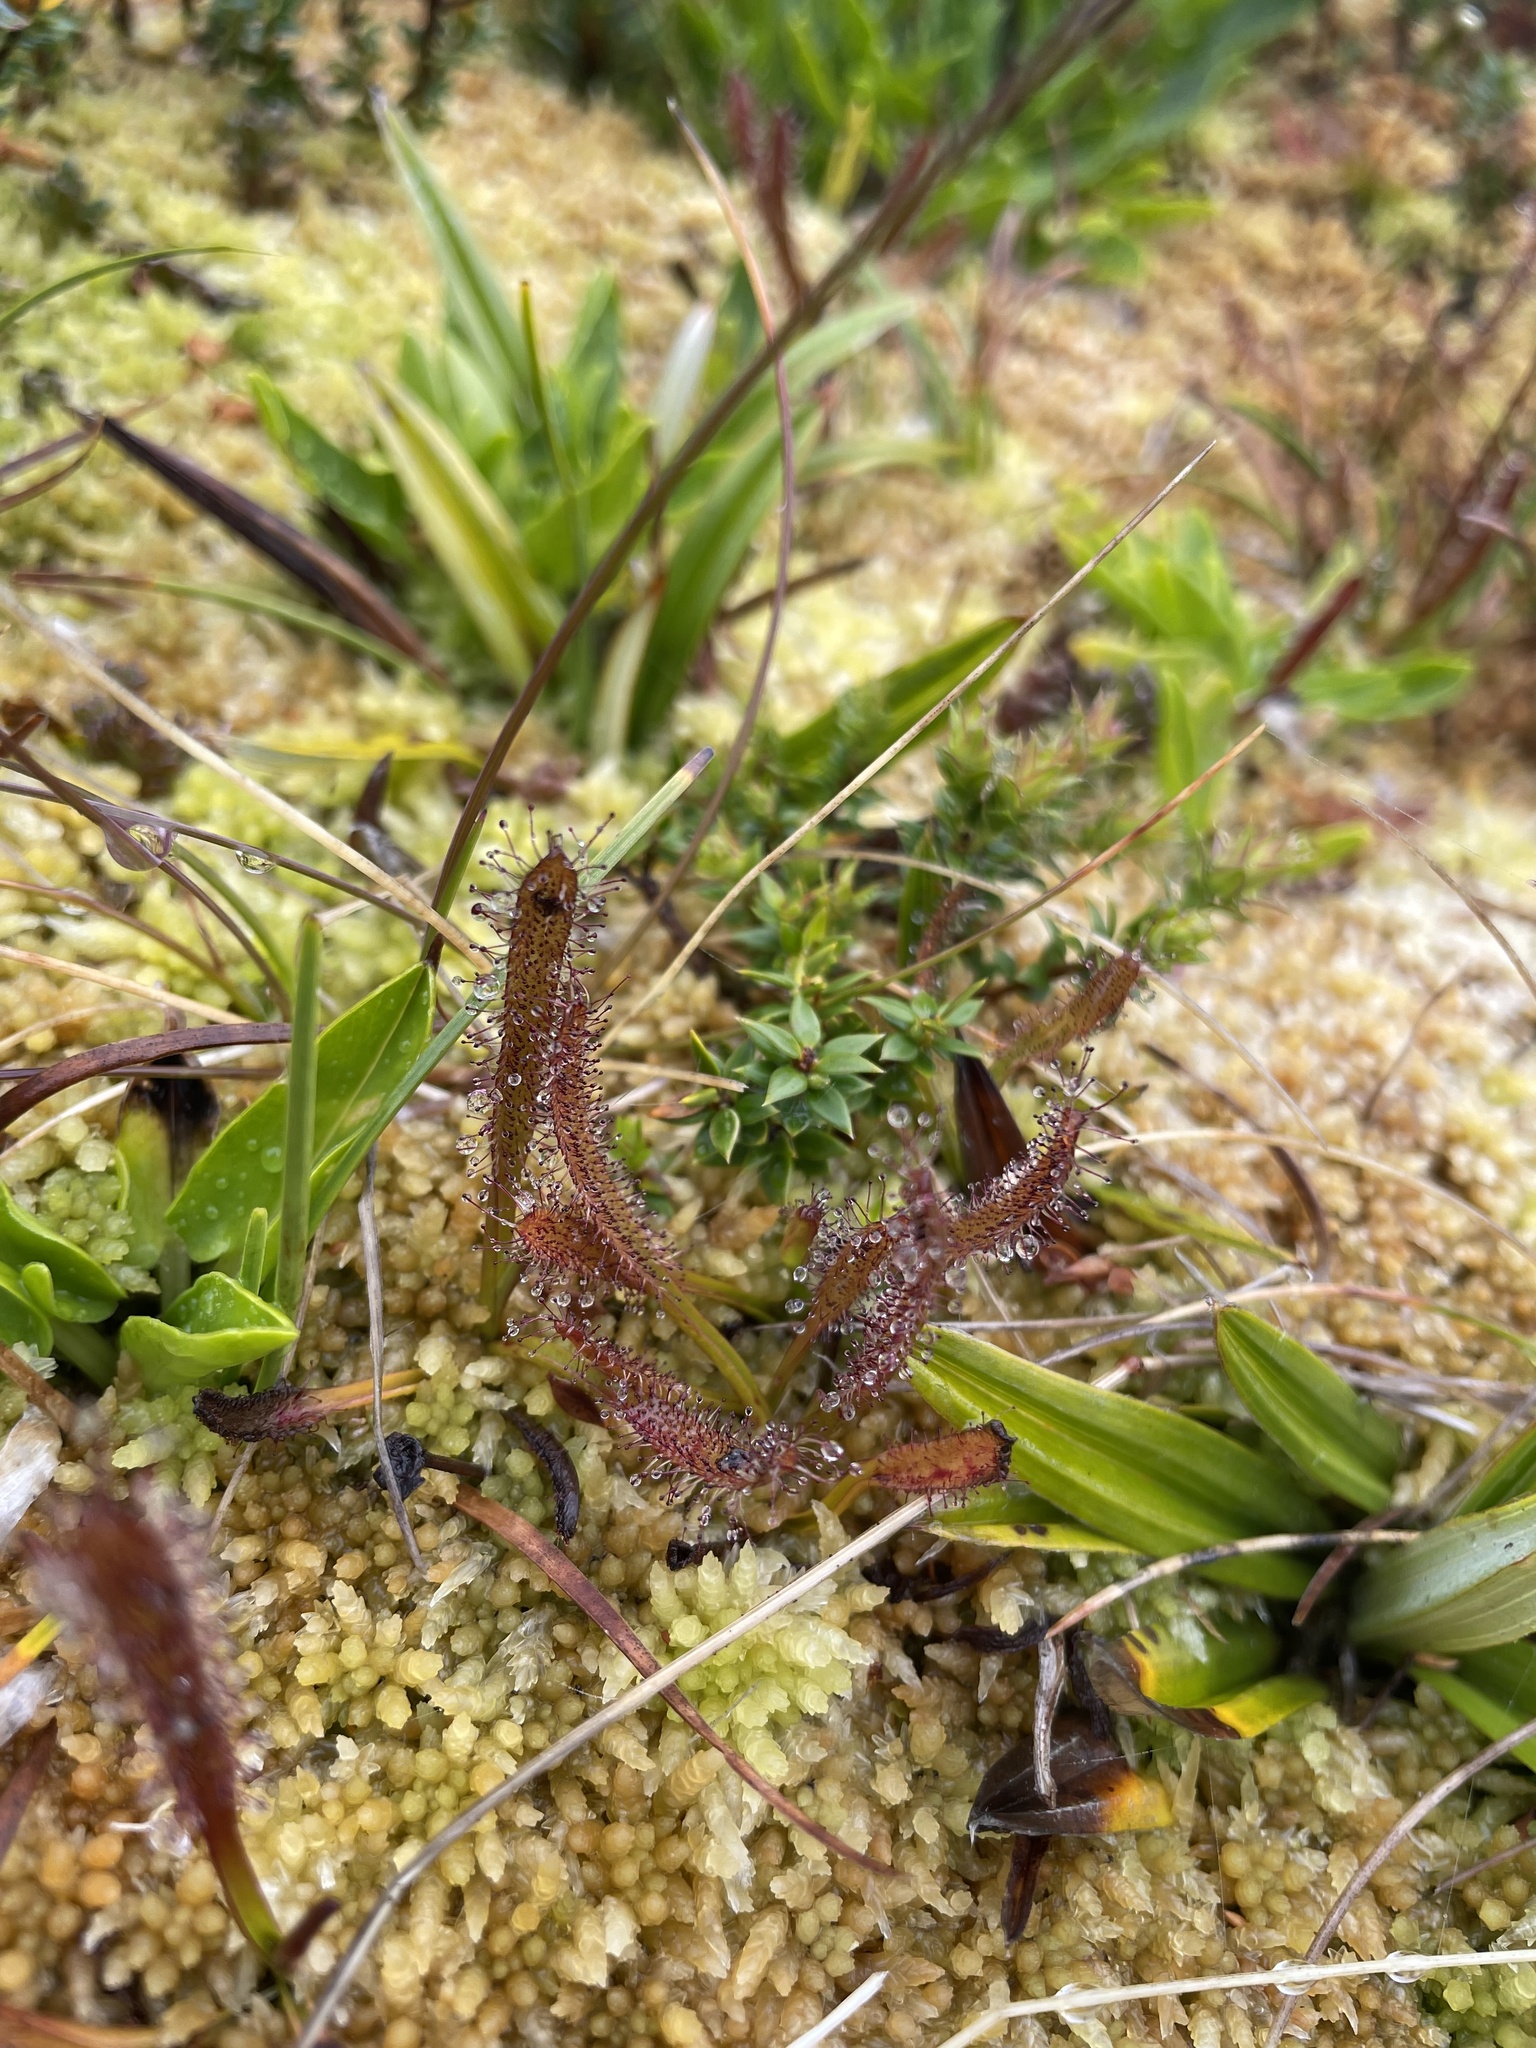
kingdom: Plantae
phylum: Tracheophyta
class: Magnoliopsida
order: Caryophyllales
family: Droseraceae
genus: Drosera
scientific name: Drosera arcturi
